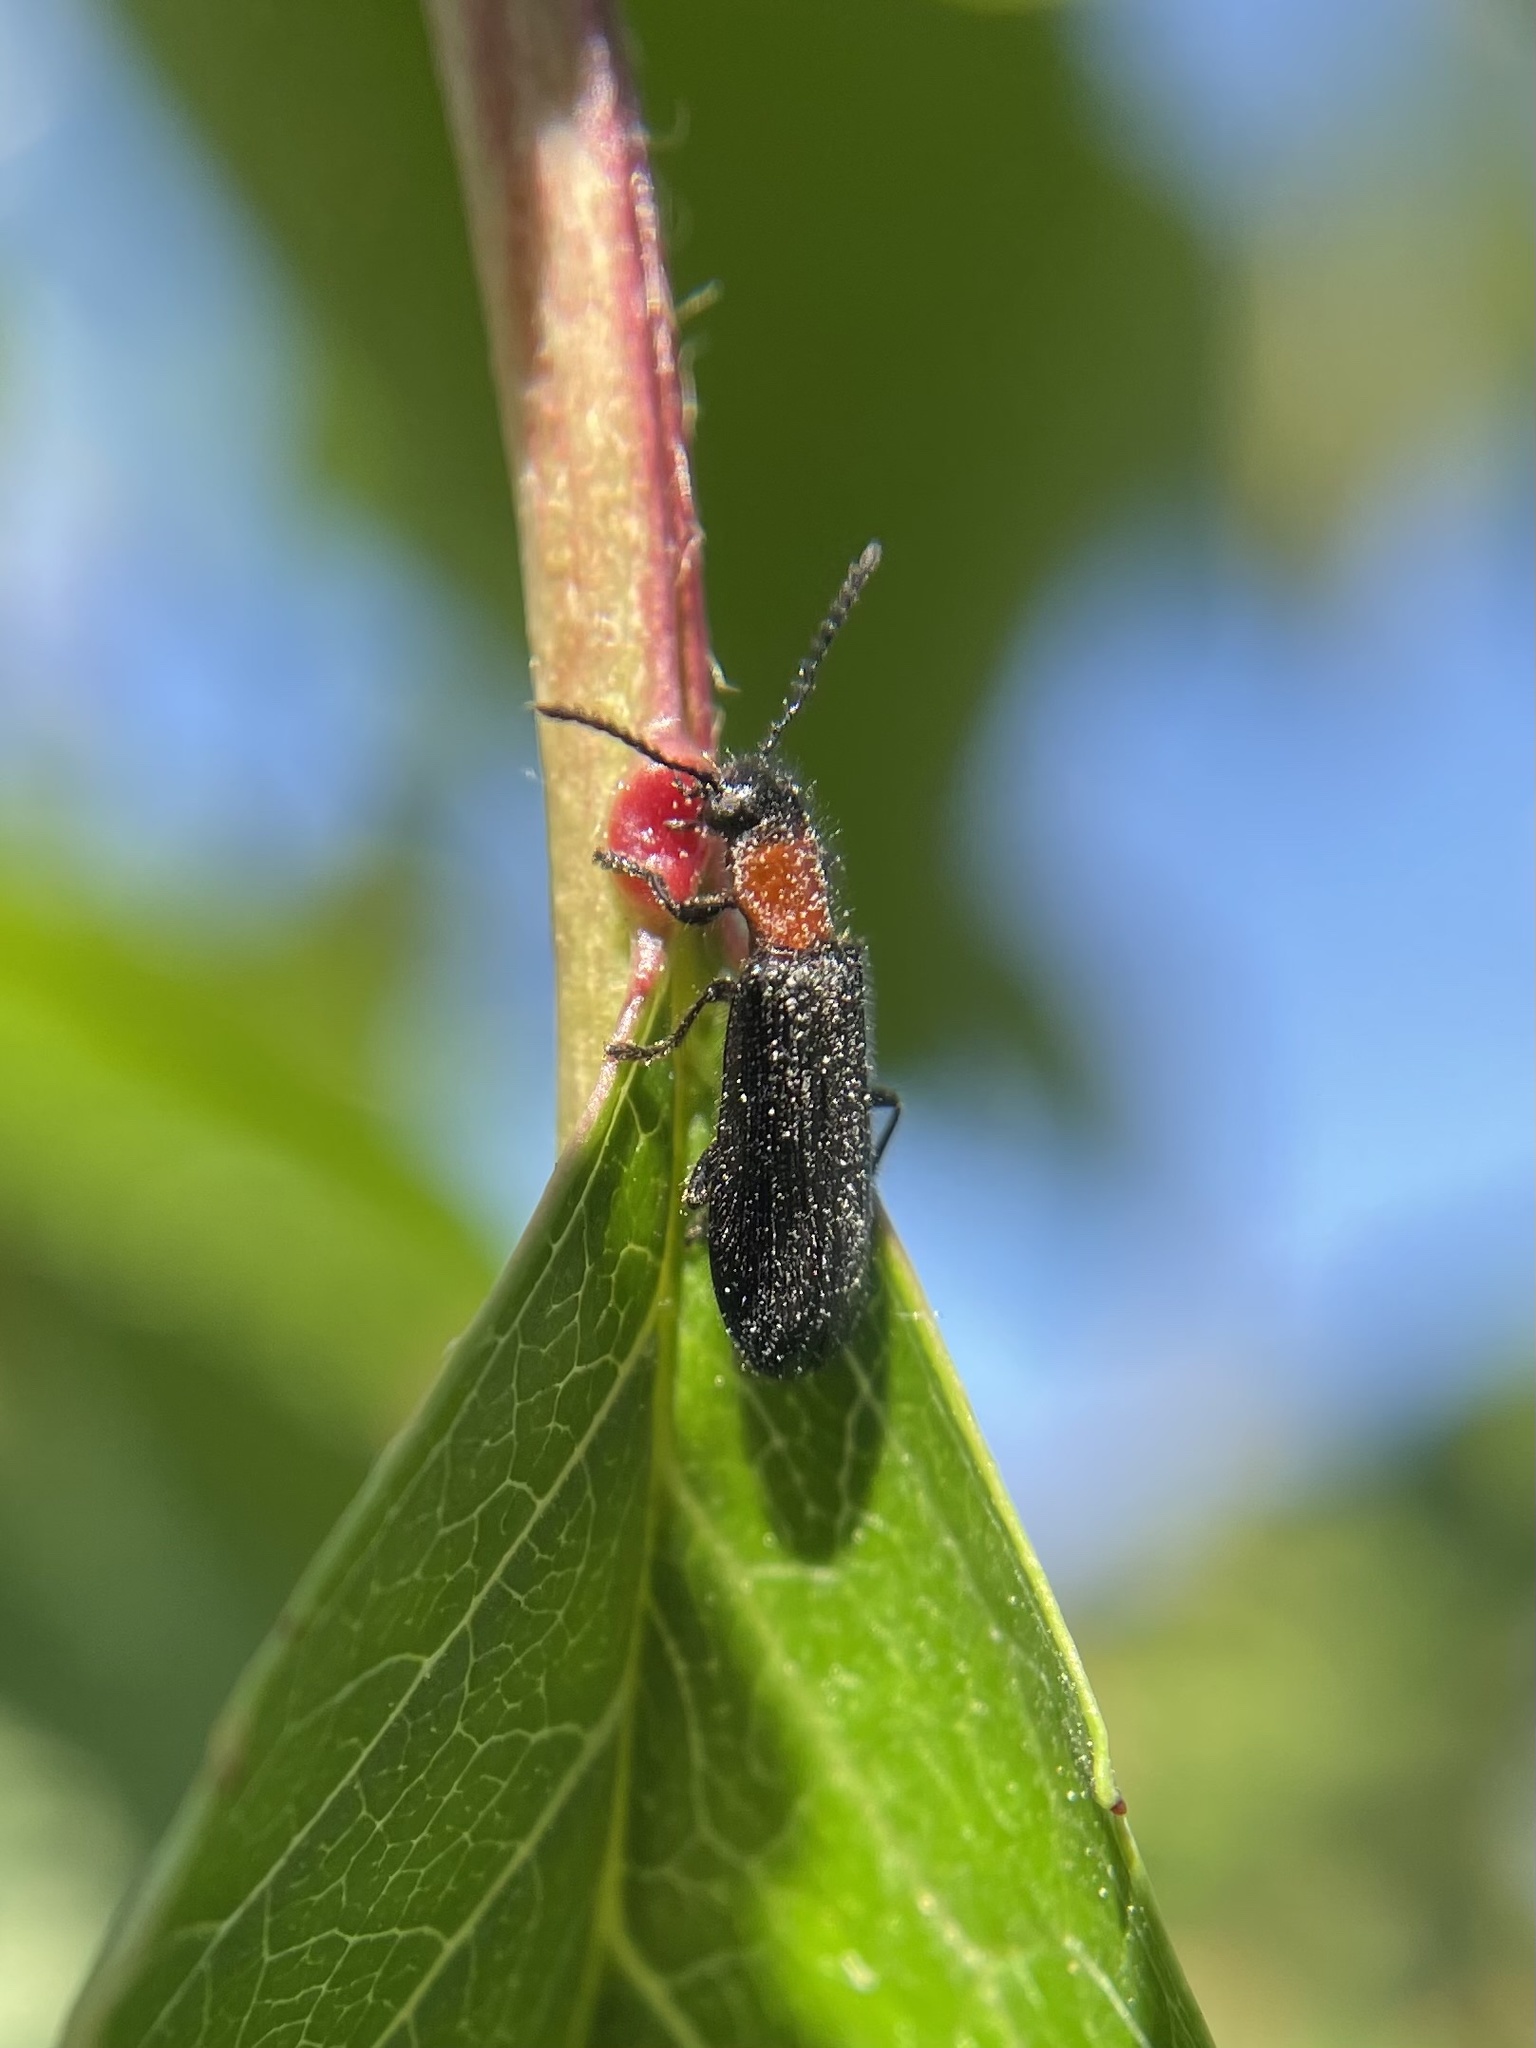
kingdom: Animalia
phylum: Arthropoda
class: Insecta
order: Coleoptera
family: Cleridae
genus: Tillus
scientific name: Tillus elongatus
